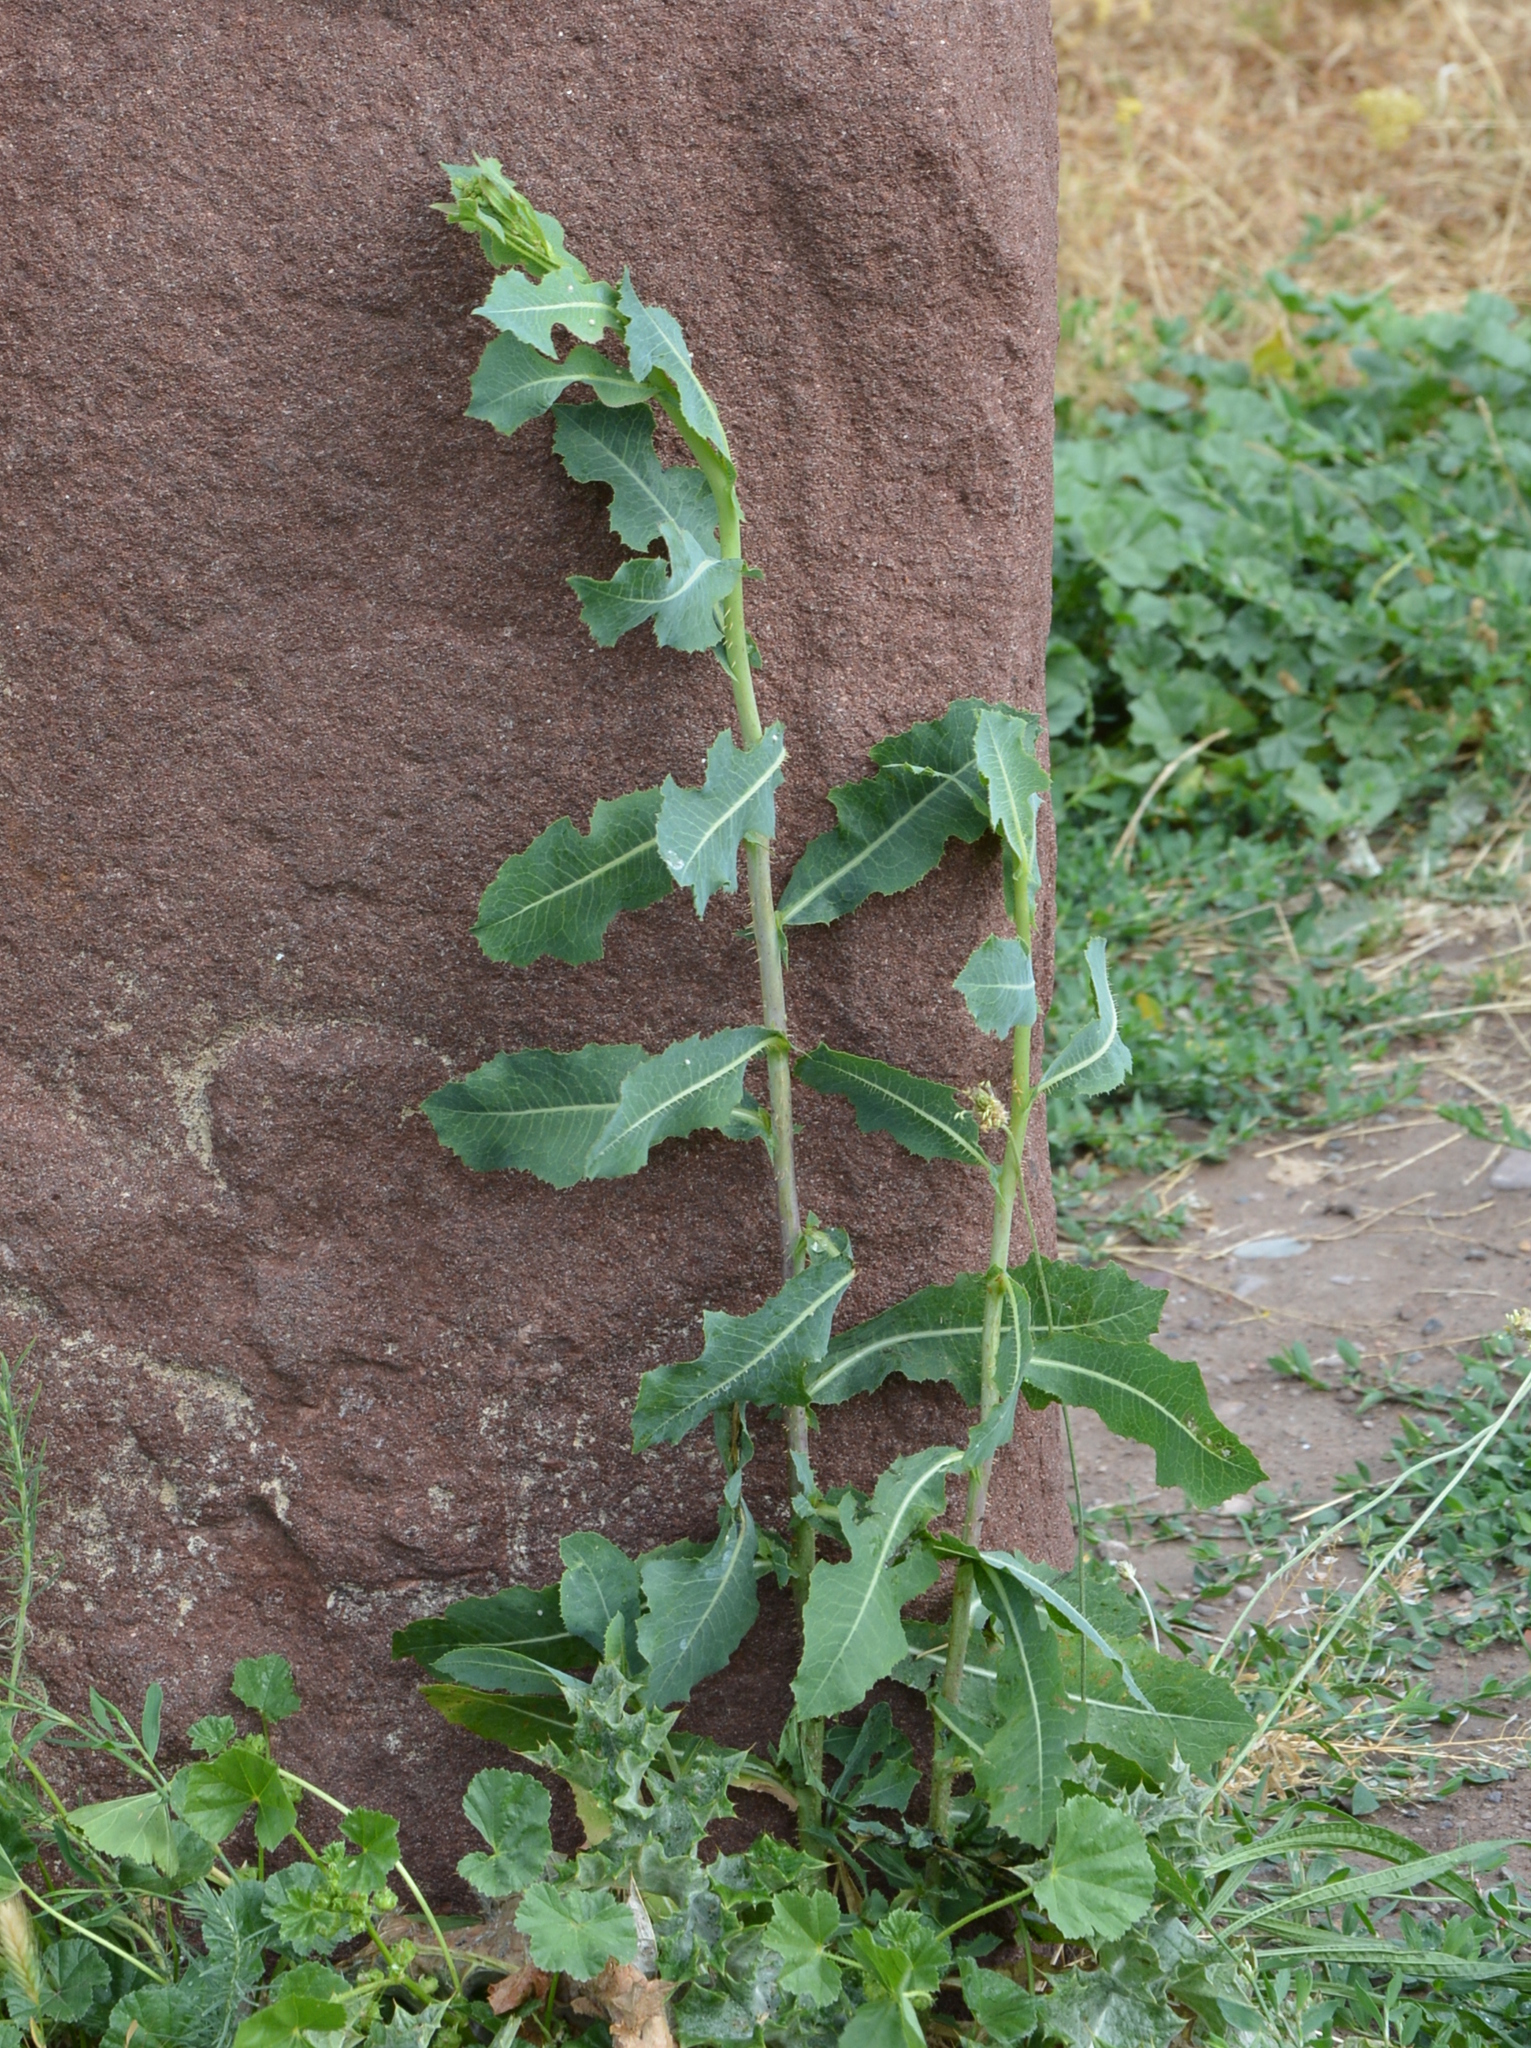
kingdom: Plantae
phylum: Tracheophyta
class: Magnoliopsida
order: Asterales
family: Asteraceae
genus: Lactuca
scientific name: Lactuca serriola
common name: Prickly lettuce
